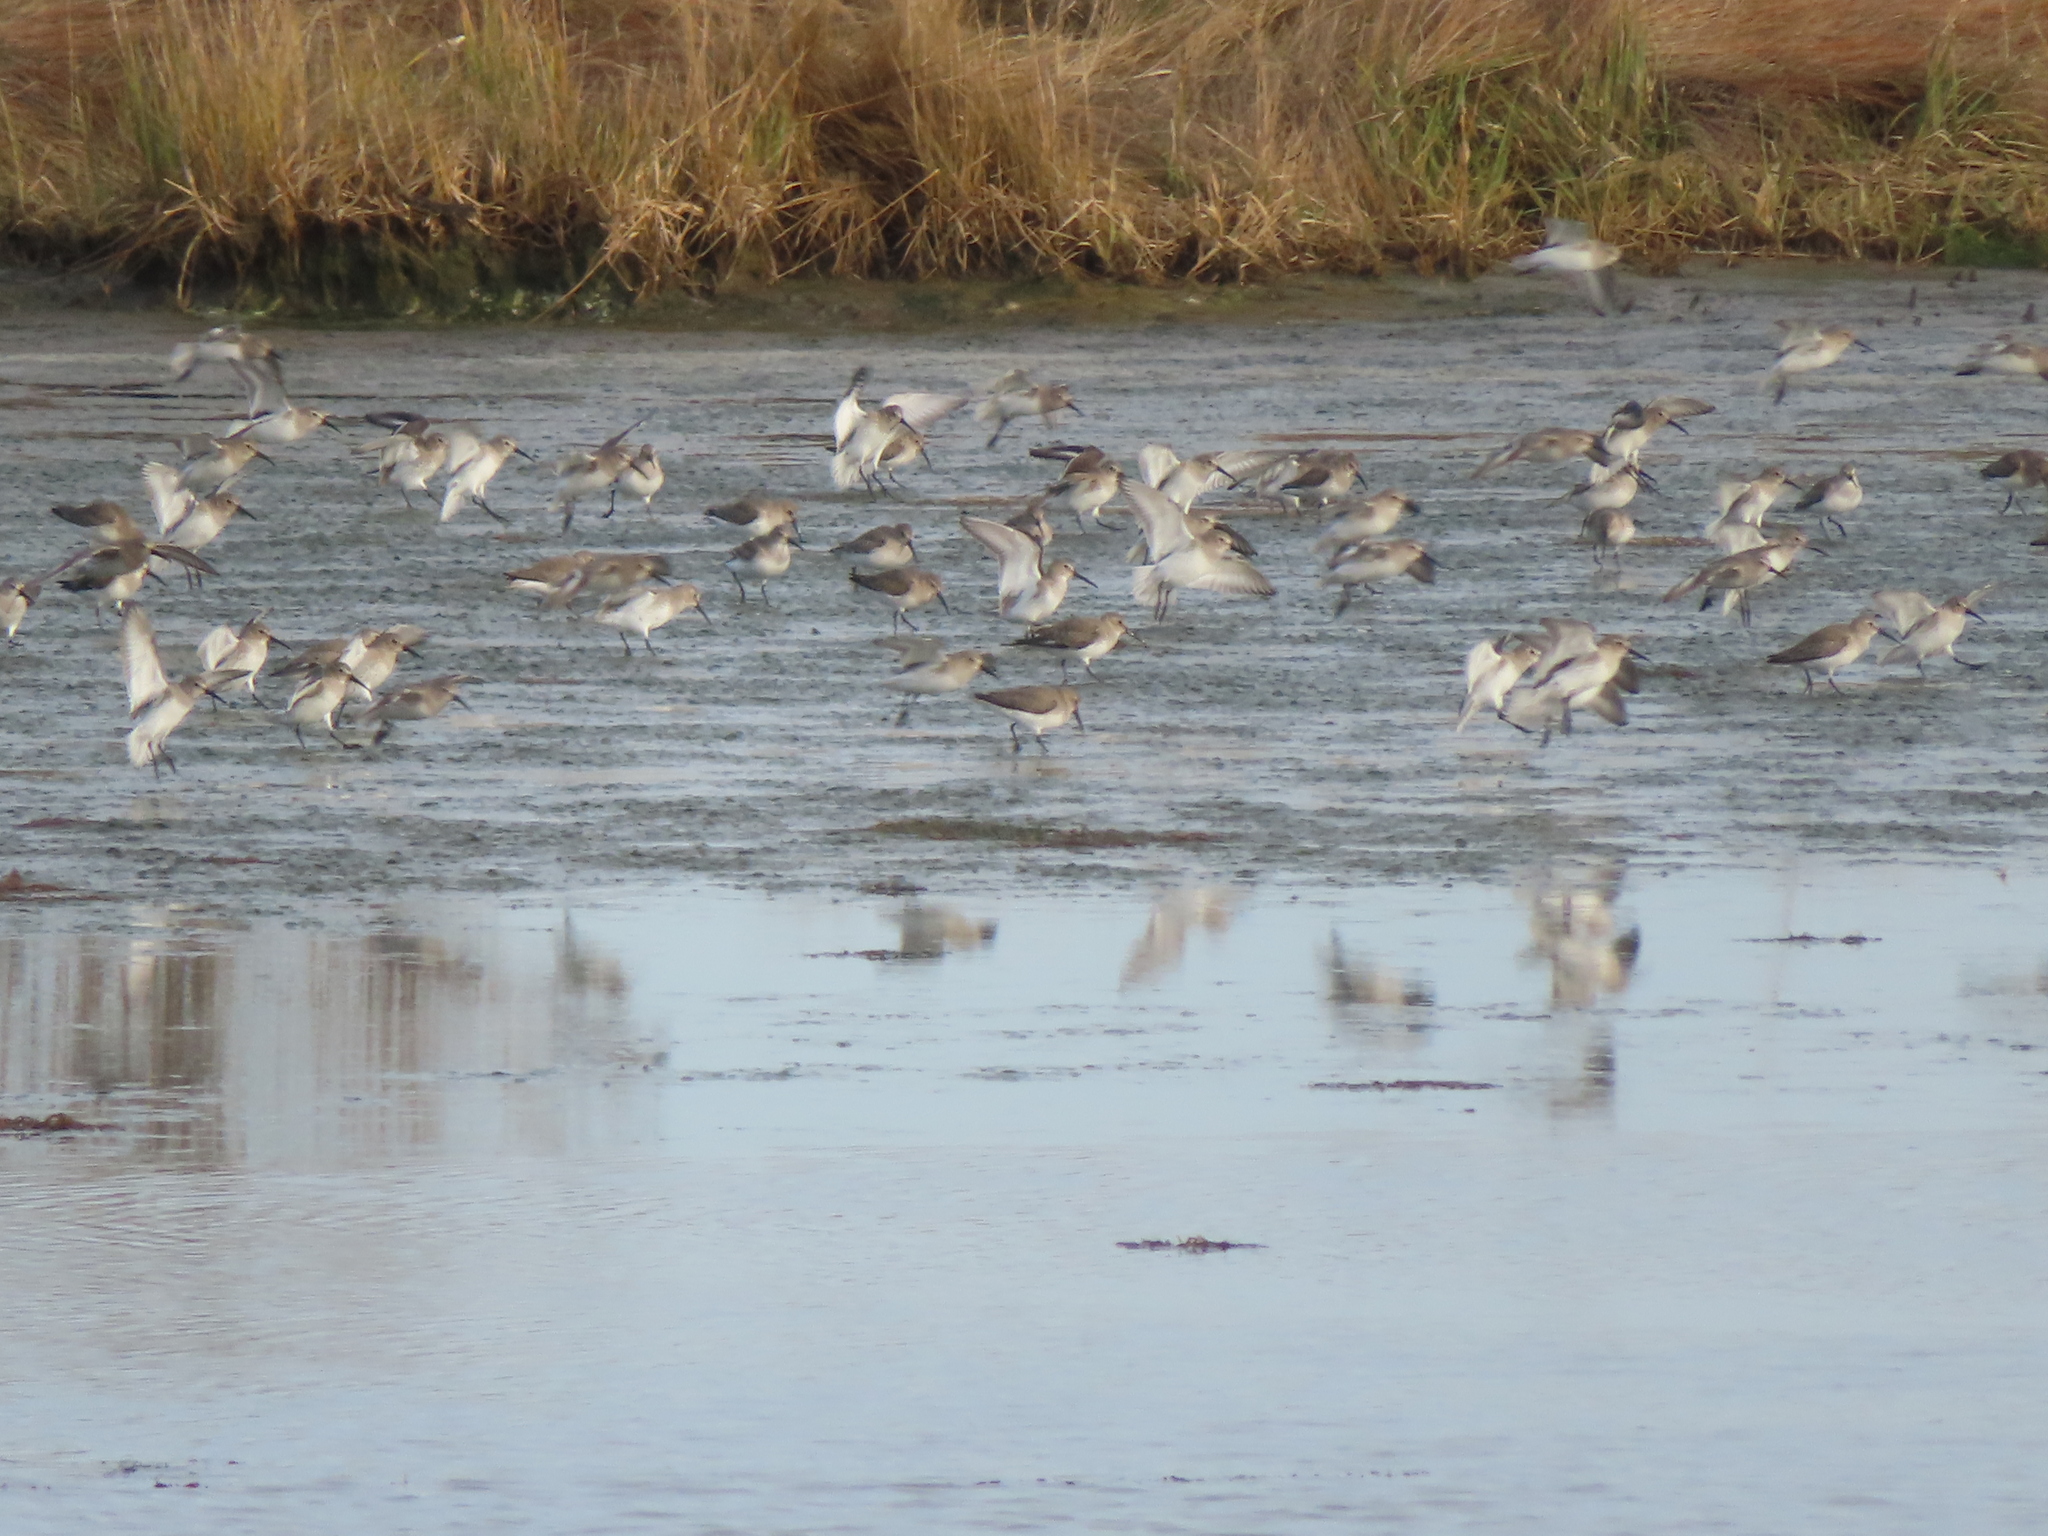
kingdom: Animalia
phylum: Chordata
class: Aves
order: Charadriiformes
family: Scolopacidae
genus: Calidris
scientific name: Calidris alpina
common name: Dunlin
